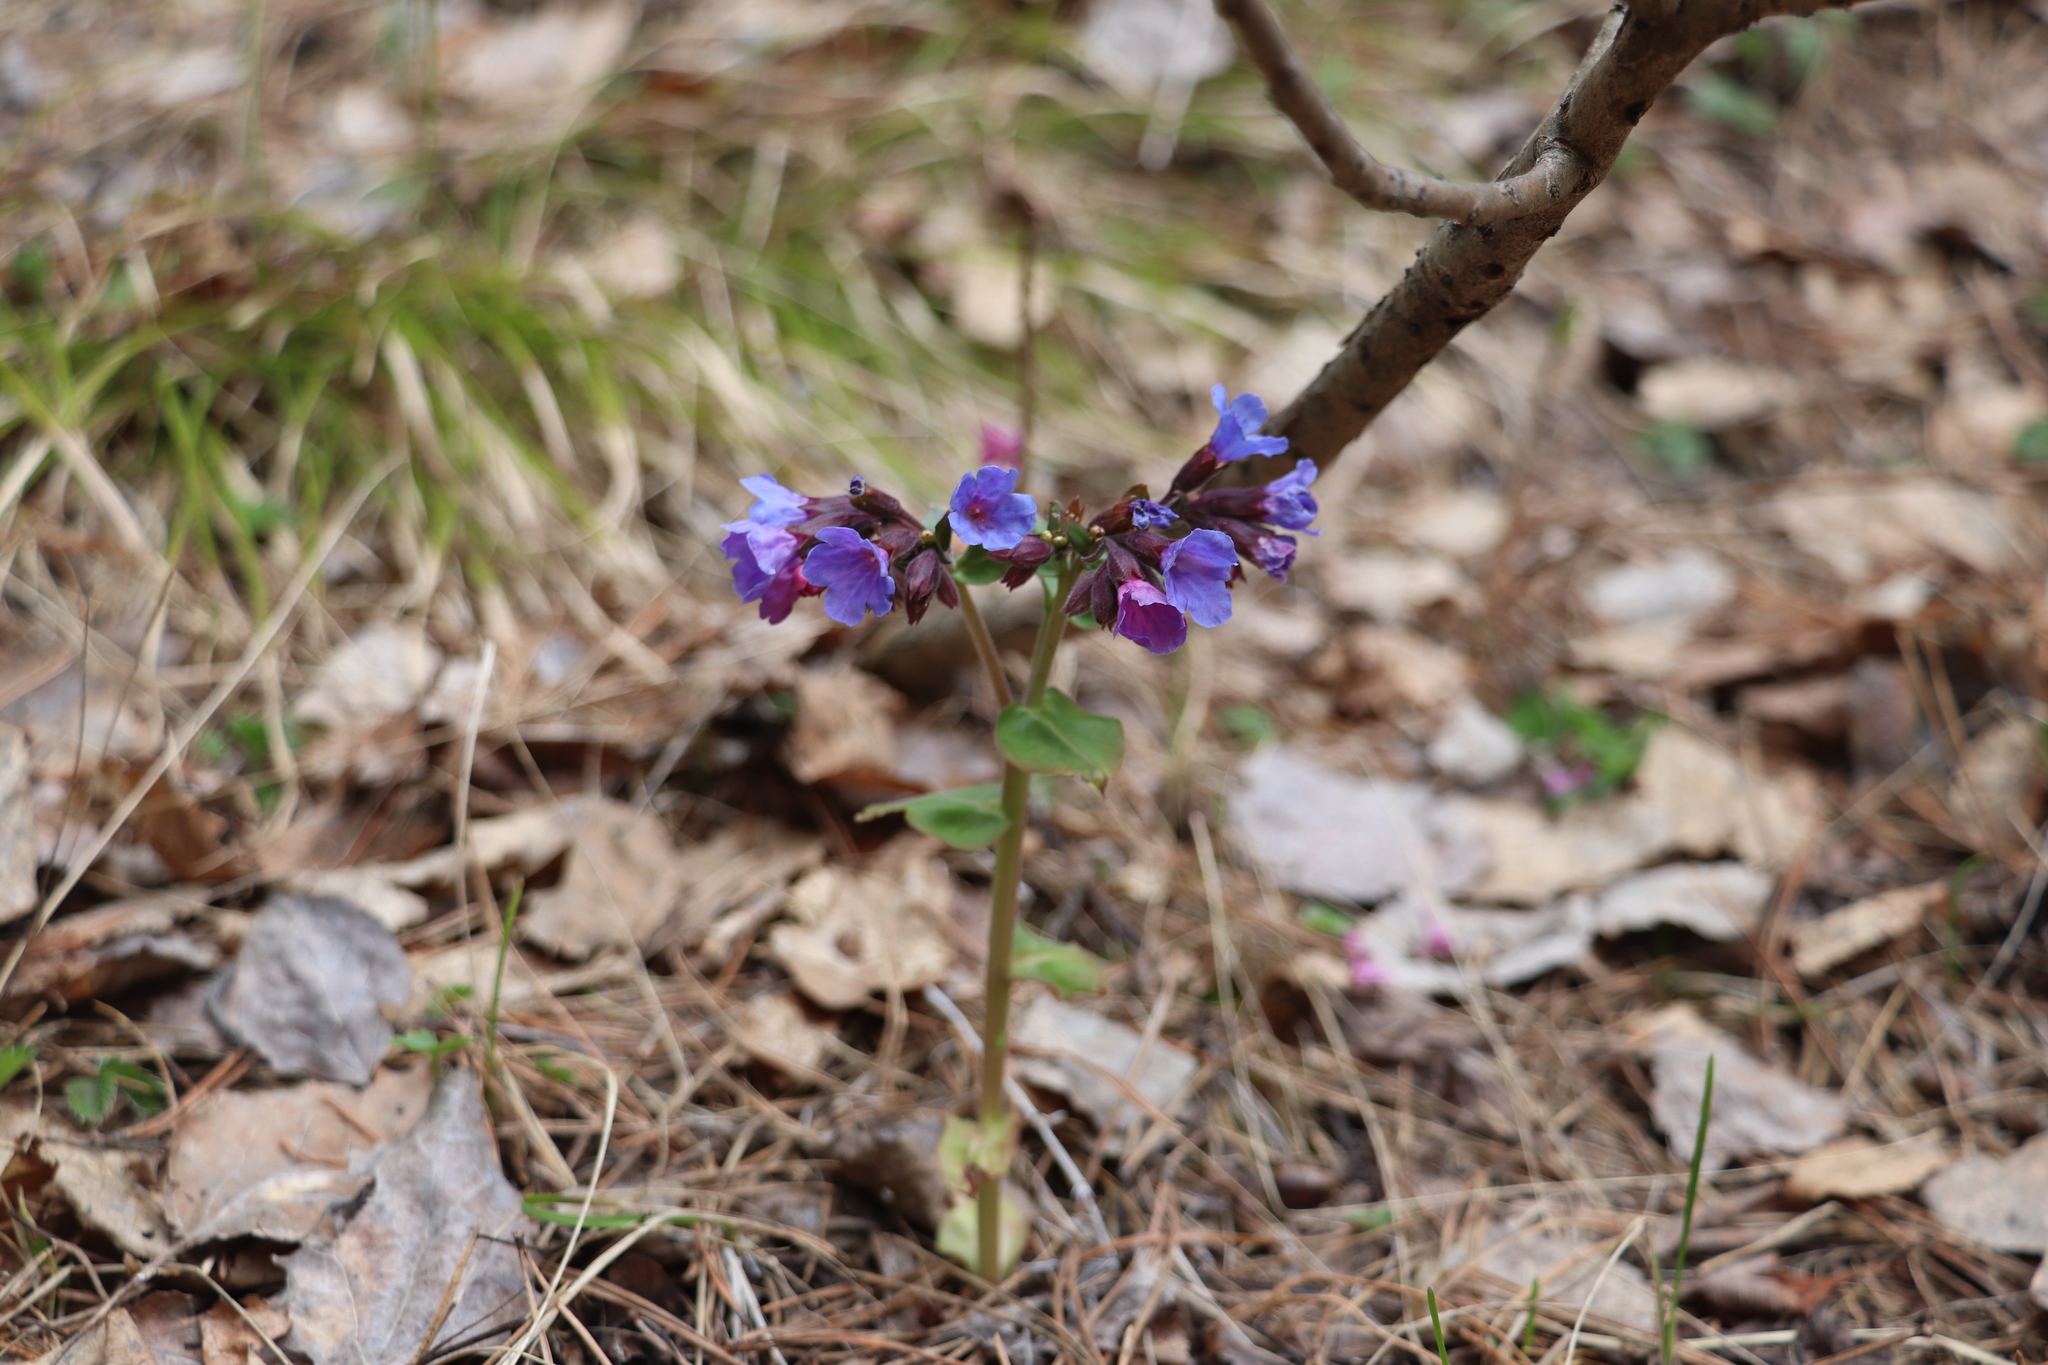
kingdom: Plantae
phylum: Tracheophyta
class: Magnoliopsida
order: Boraginales
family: Boraginaceae
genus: Pulmonaria
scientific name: Pulmonaria mollis
